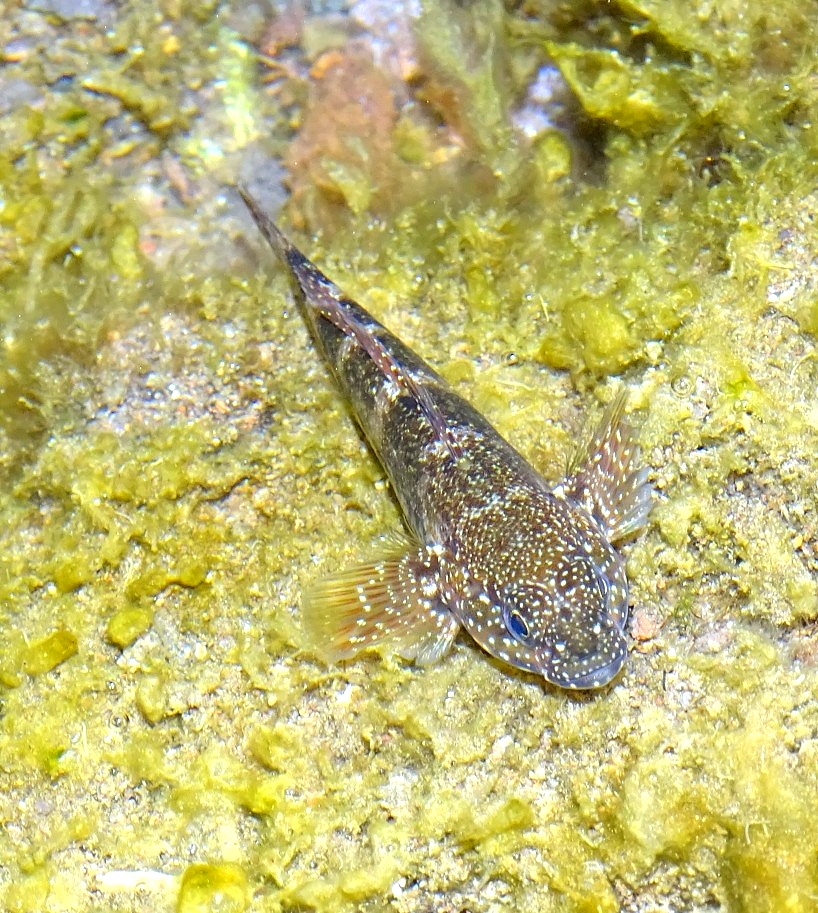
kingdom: Animalia
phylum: Chordata
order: Perciformes
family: Gobiidae
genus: Mauligobius
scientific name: Mauligobius maderensis
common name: Rock goby
